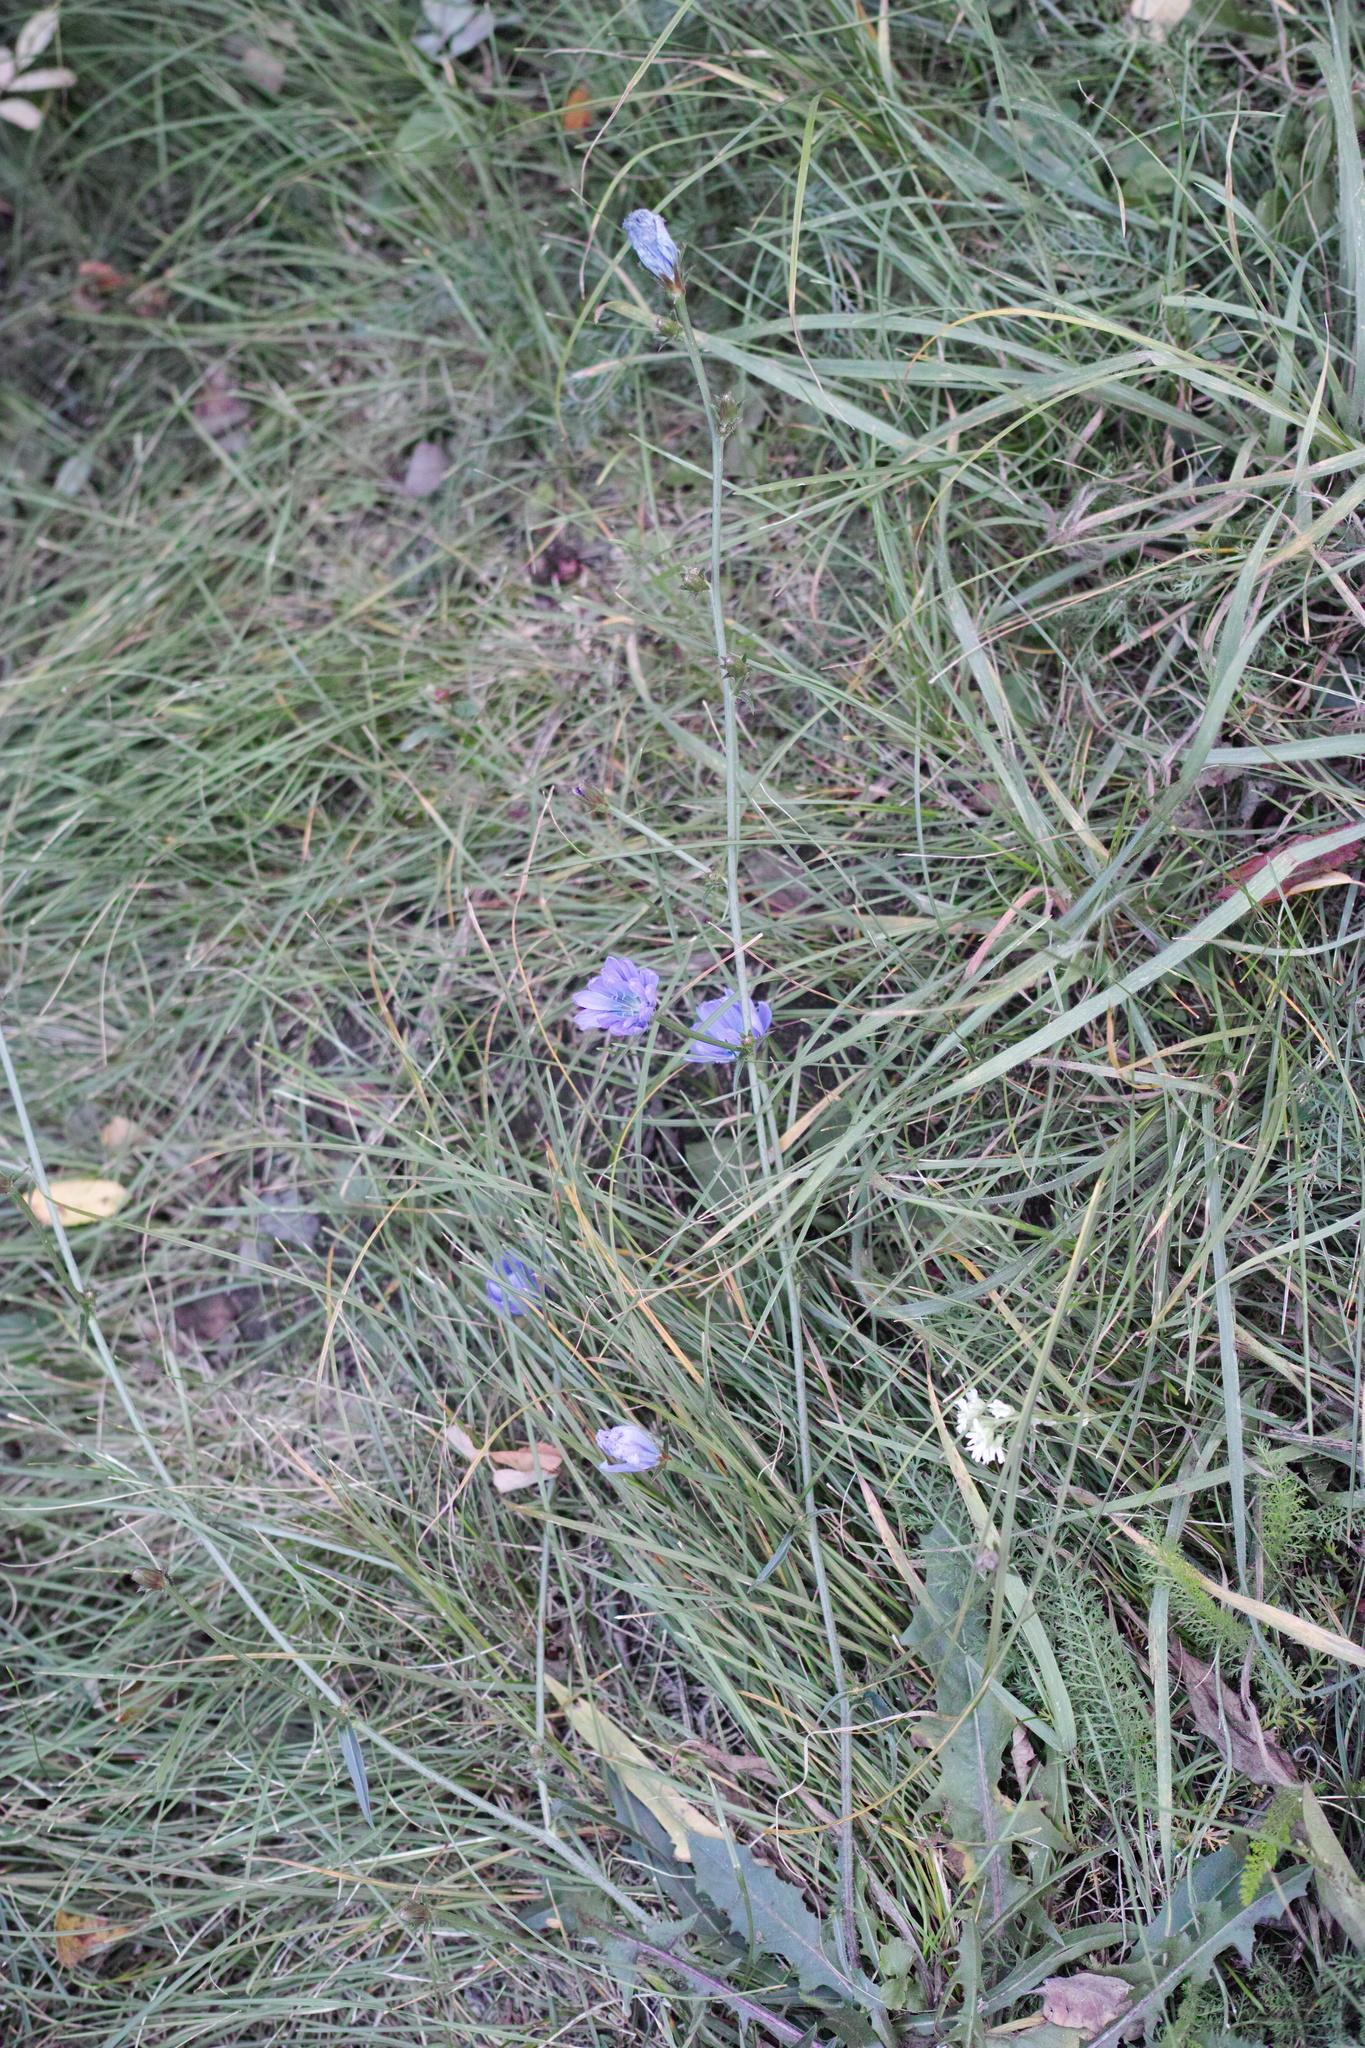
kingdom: Plantae
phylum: Tracheophyta
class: Magnoliopsida
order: Asterales
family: Asteraceae
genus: Cichorium
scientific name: Cichorium intybus
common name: Chicory
